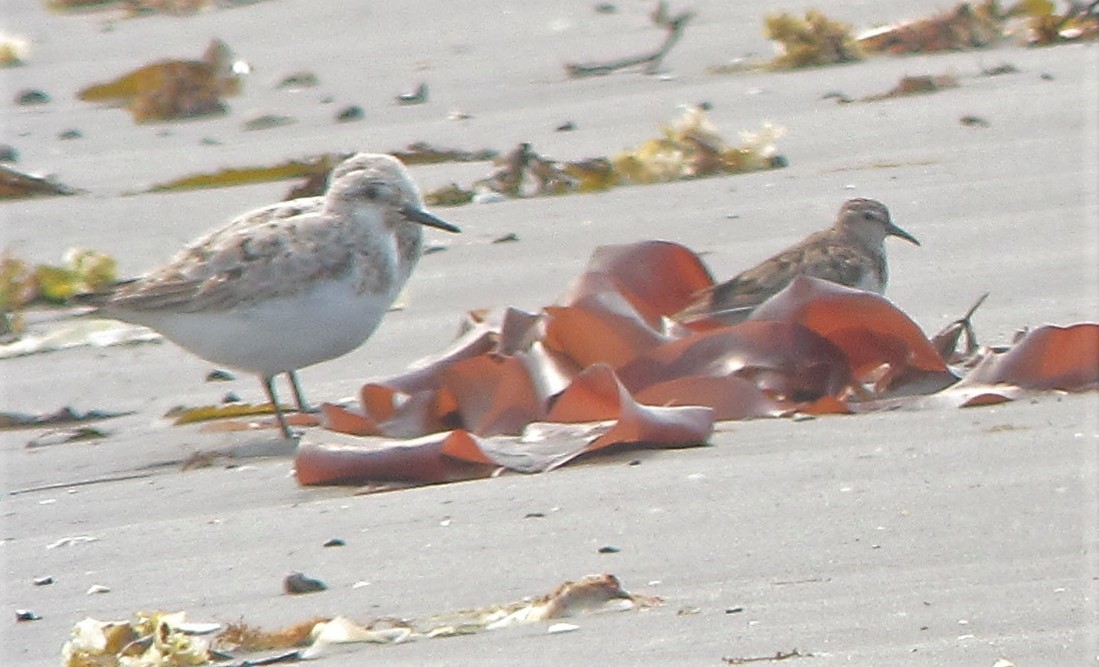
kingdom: Animalia
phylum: Chordata
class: Aves
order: Charadriiformes
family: Scolopacidae
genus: Calidris
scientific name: Calidris minutilla
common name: Least sandpiper
